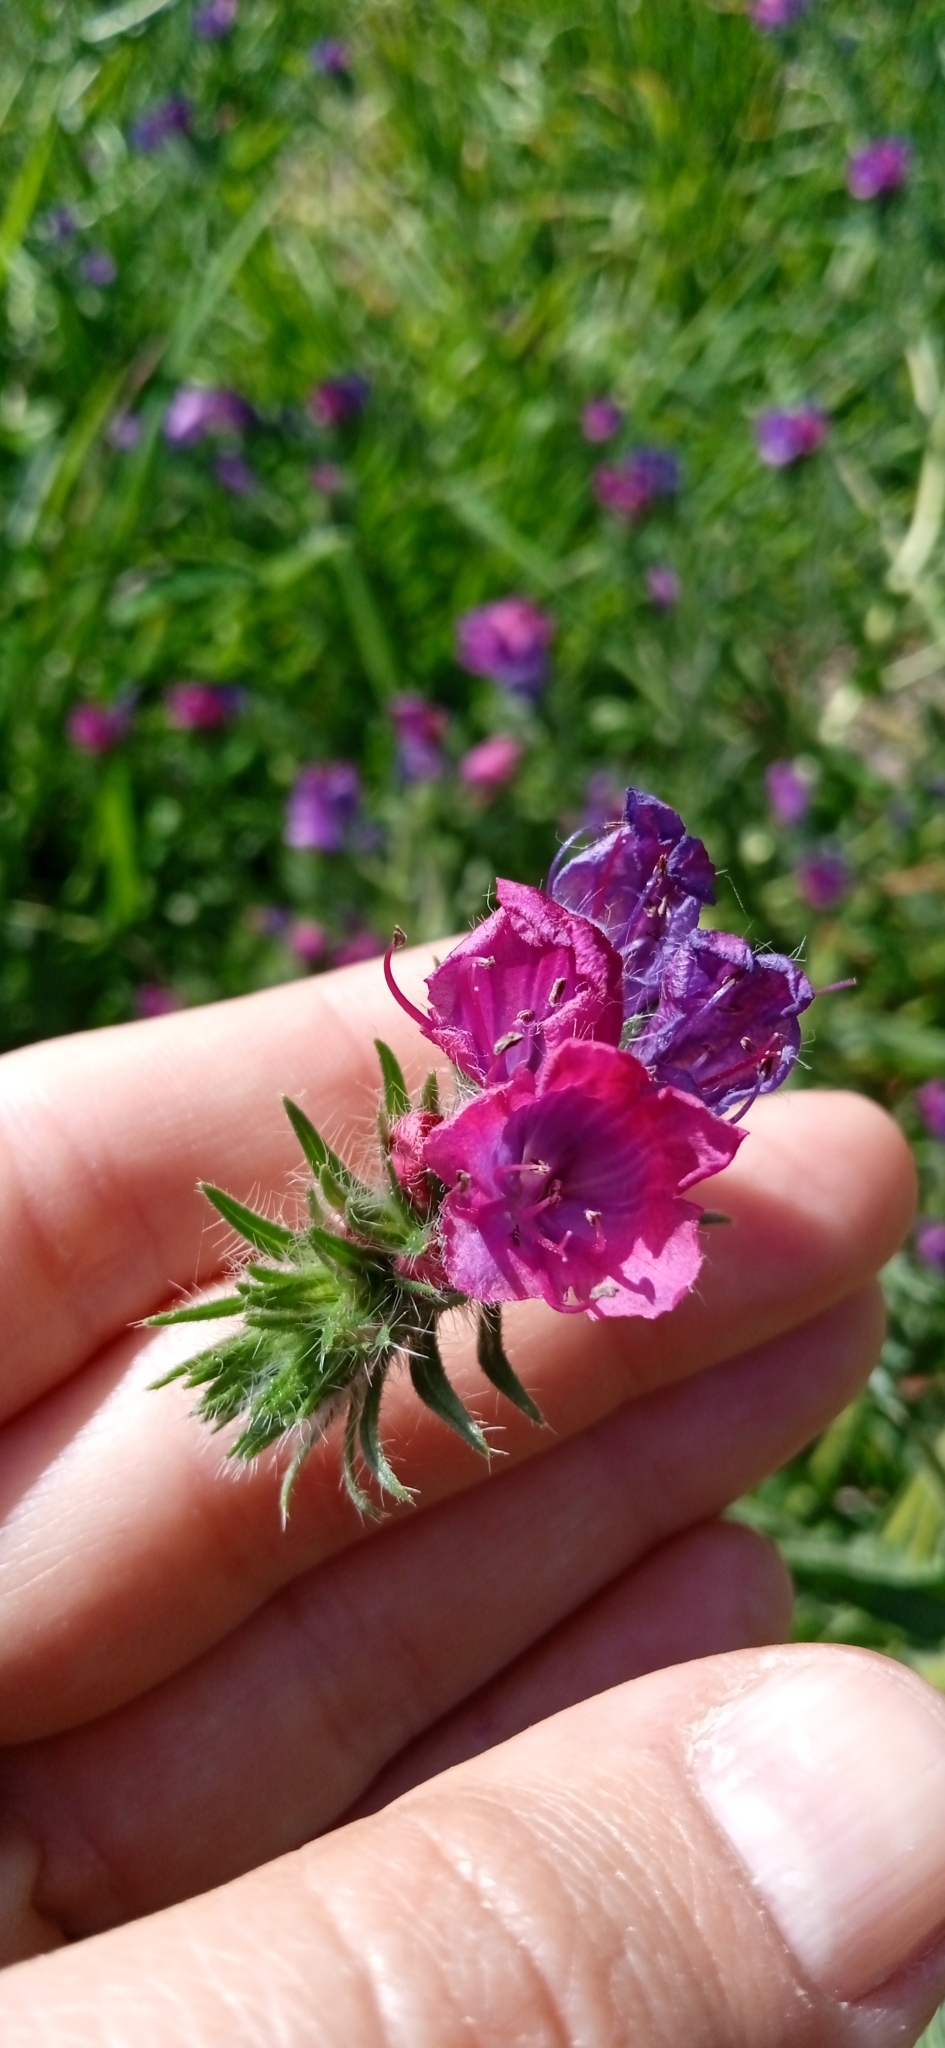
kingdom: Plantae
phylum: Tracheophyta
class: Magnoliopsida
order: Boraginales
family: Boraginaceae
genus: Echium
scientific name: Echium plantagineum
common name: Purple viper's-bugloss
